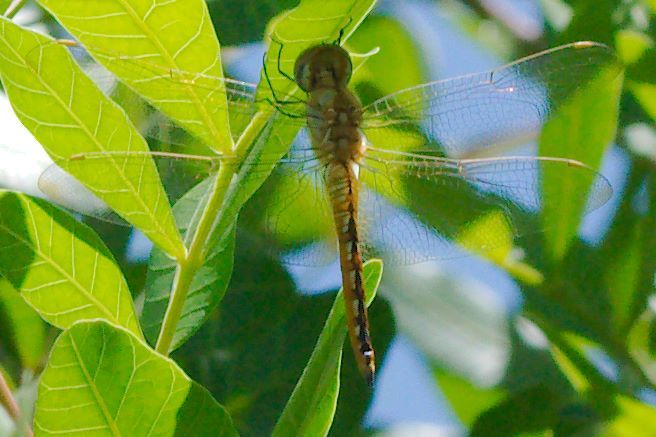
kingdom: Animalia
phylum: Arthropoda
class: Insecta
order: Odonata
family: Libellulidae
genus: Pantala
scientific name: Pantala flavescens
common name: Wandering glider
